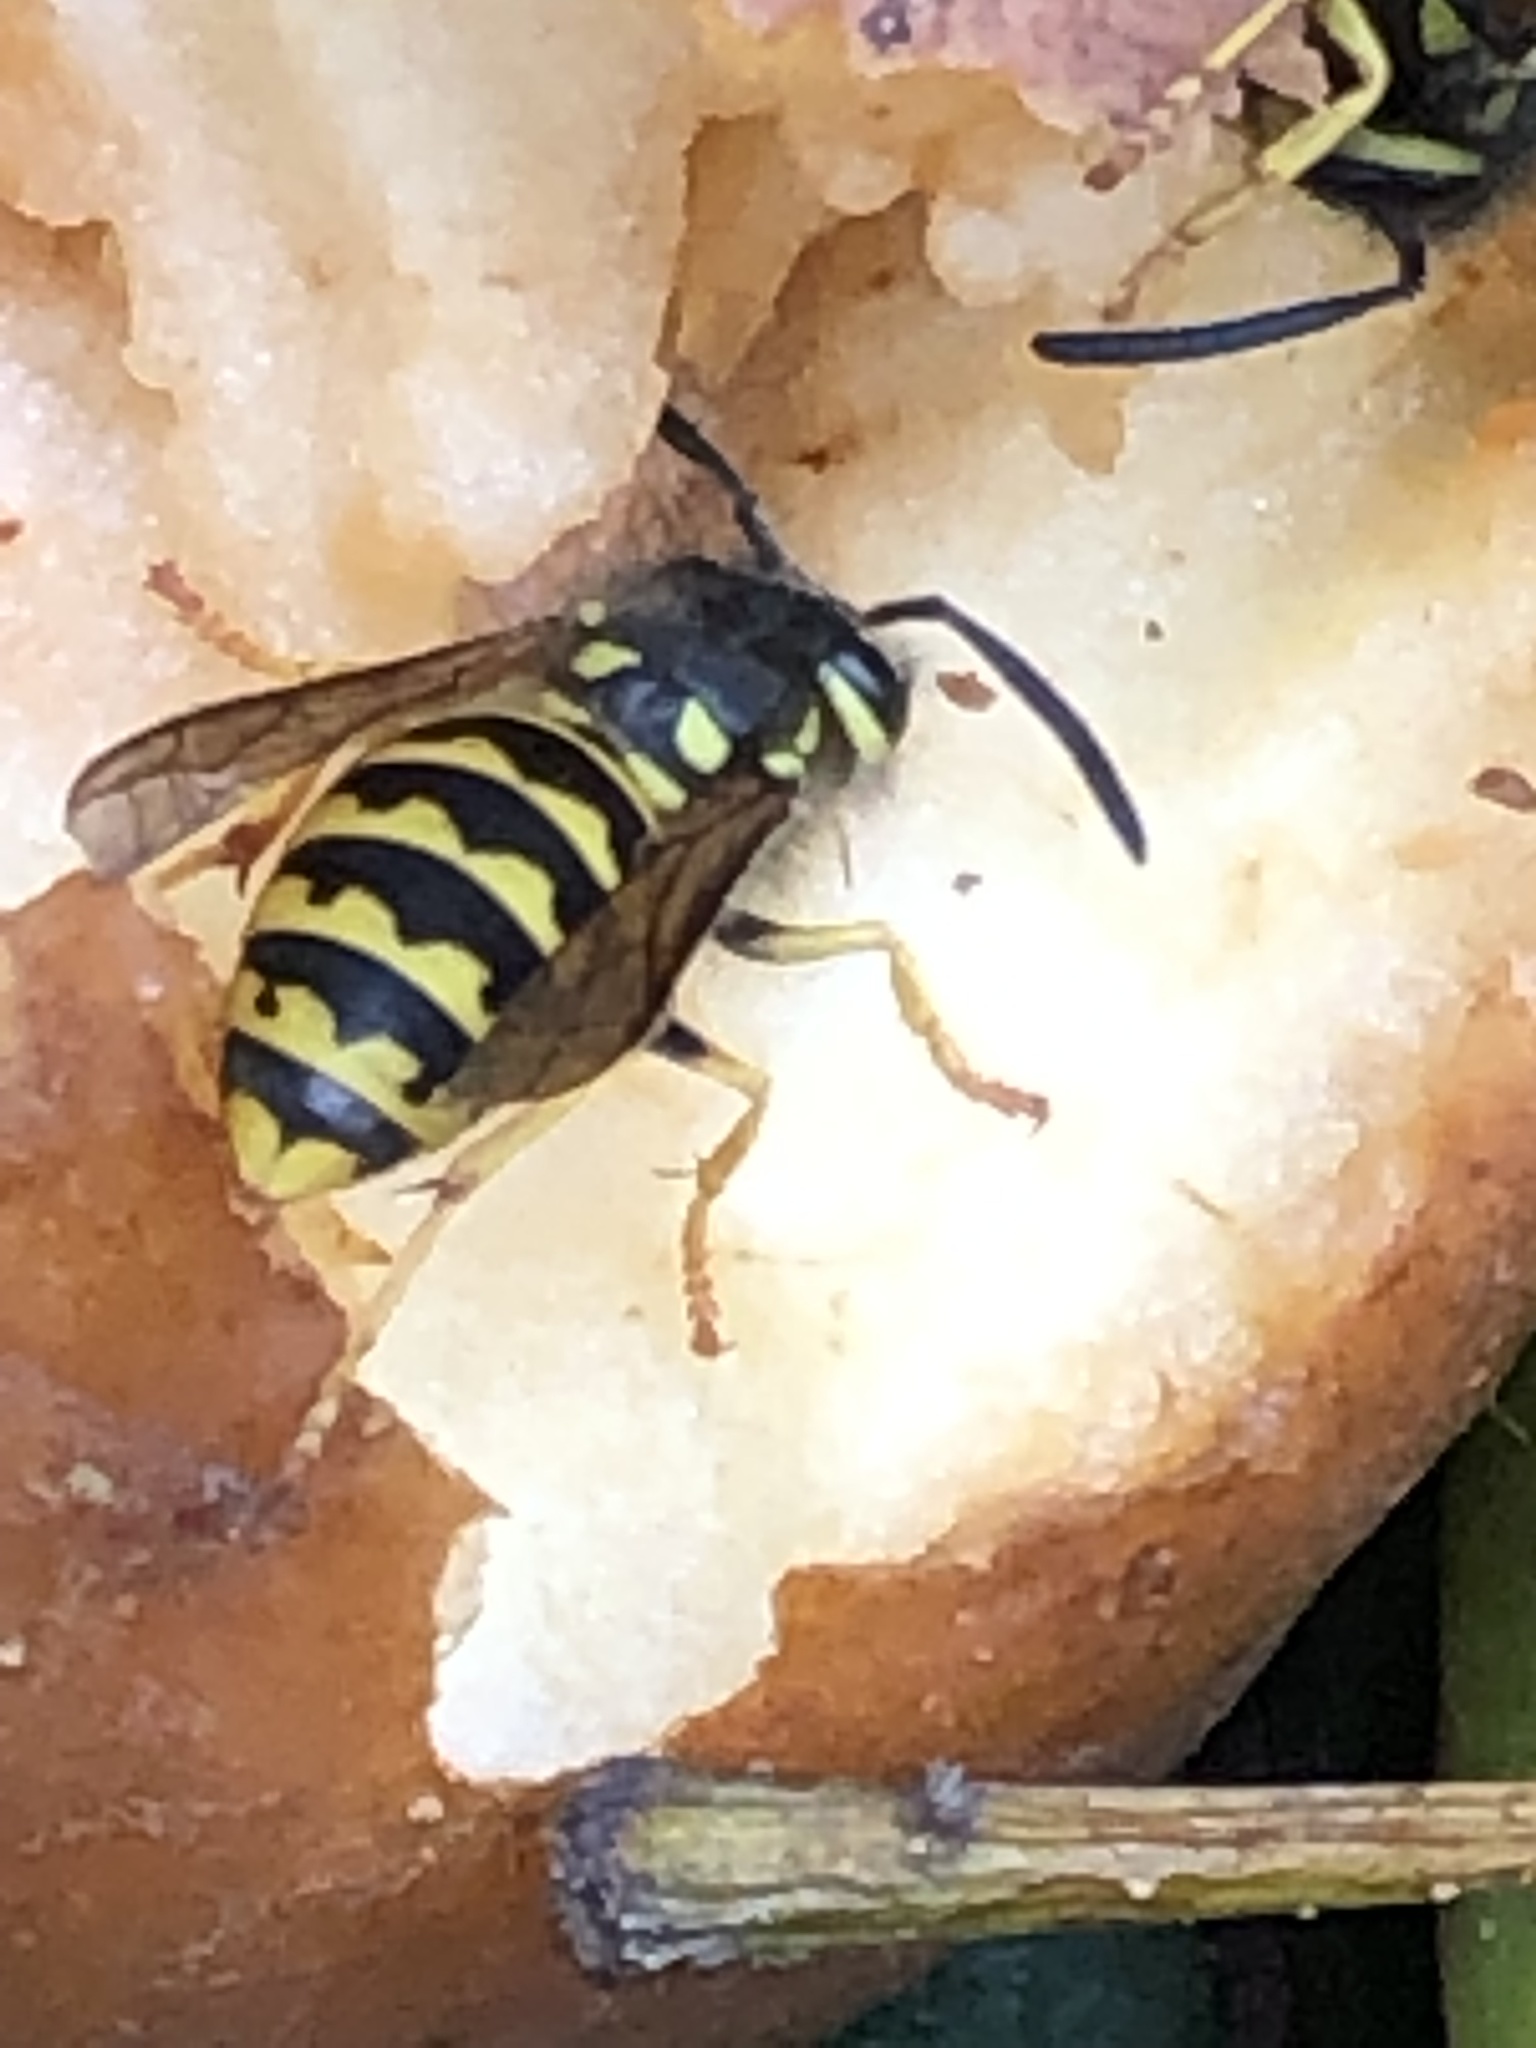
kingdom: Animalia
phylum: Arthropoda
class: Insecta
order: Hymenoptera
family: Vespidae
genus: Vespula
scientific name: Vespula germanica
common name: German wasp
